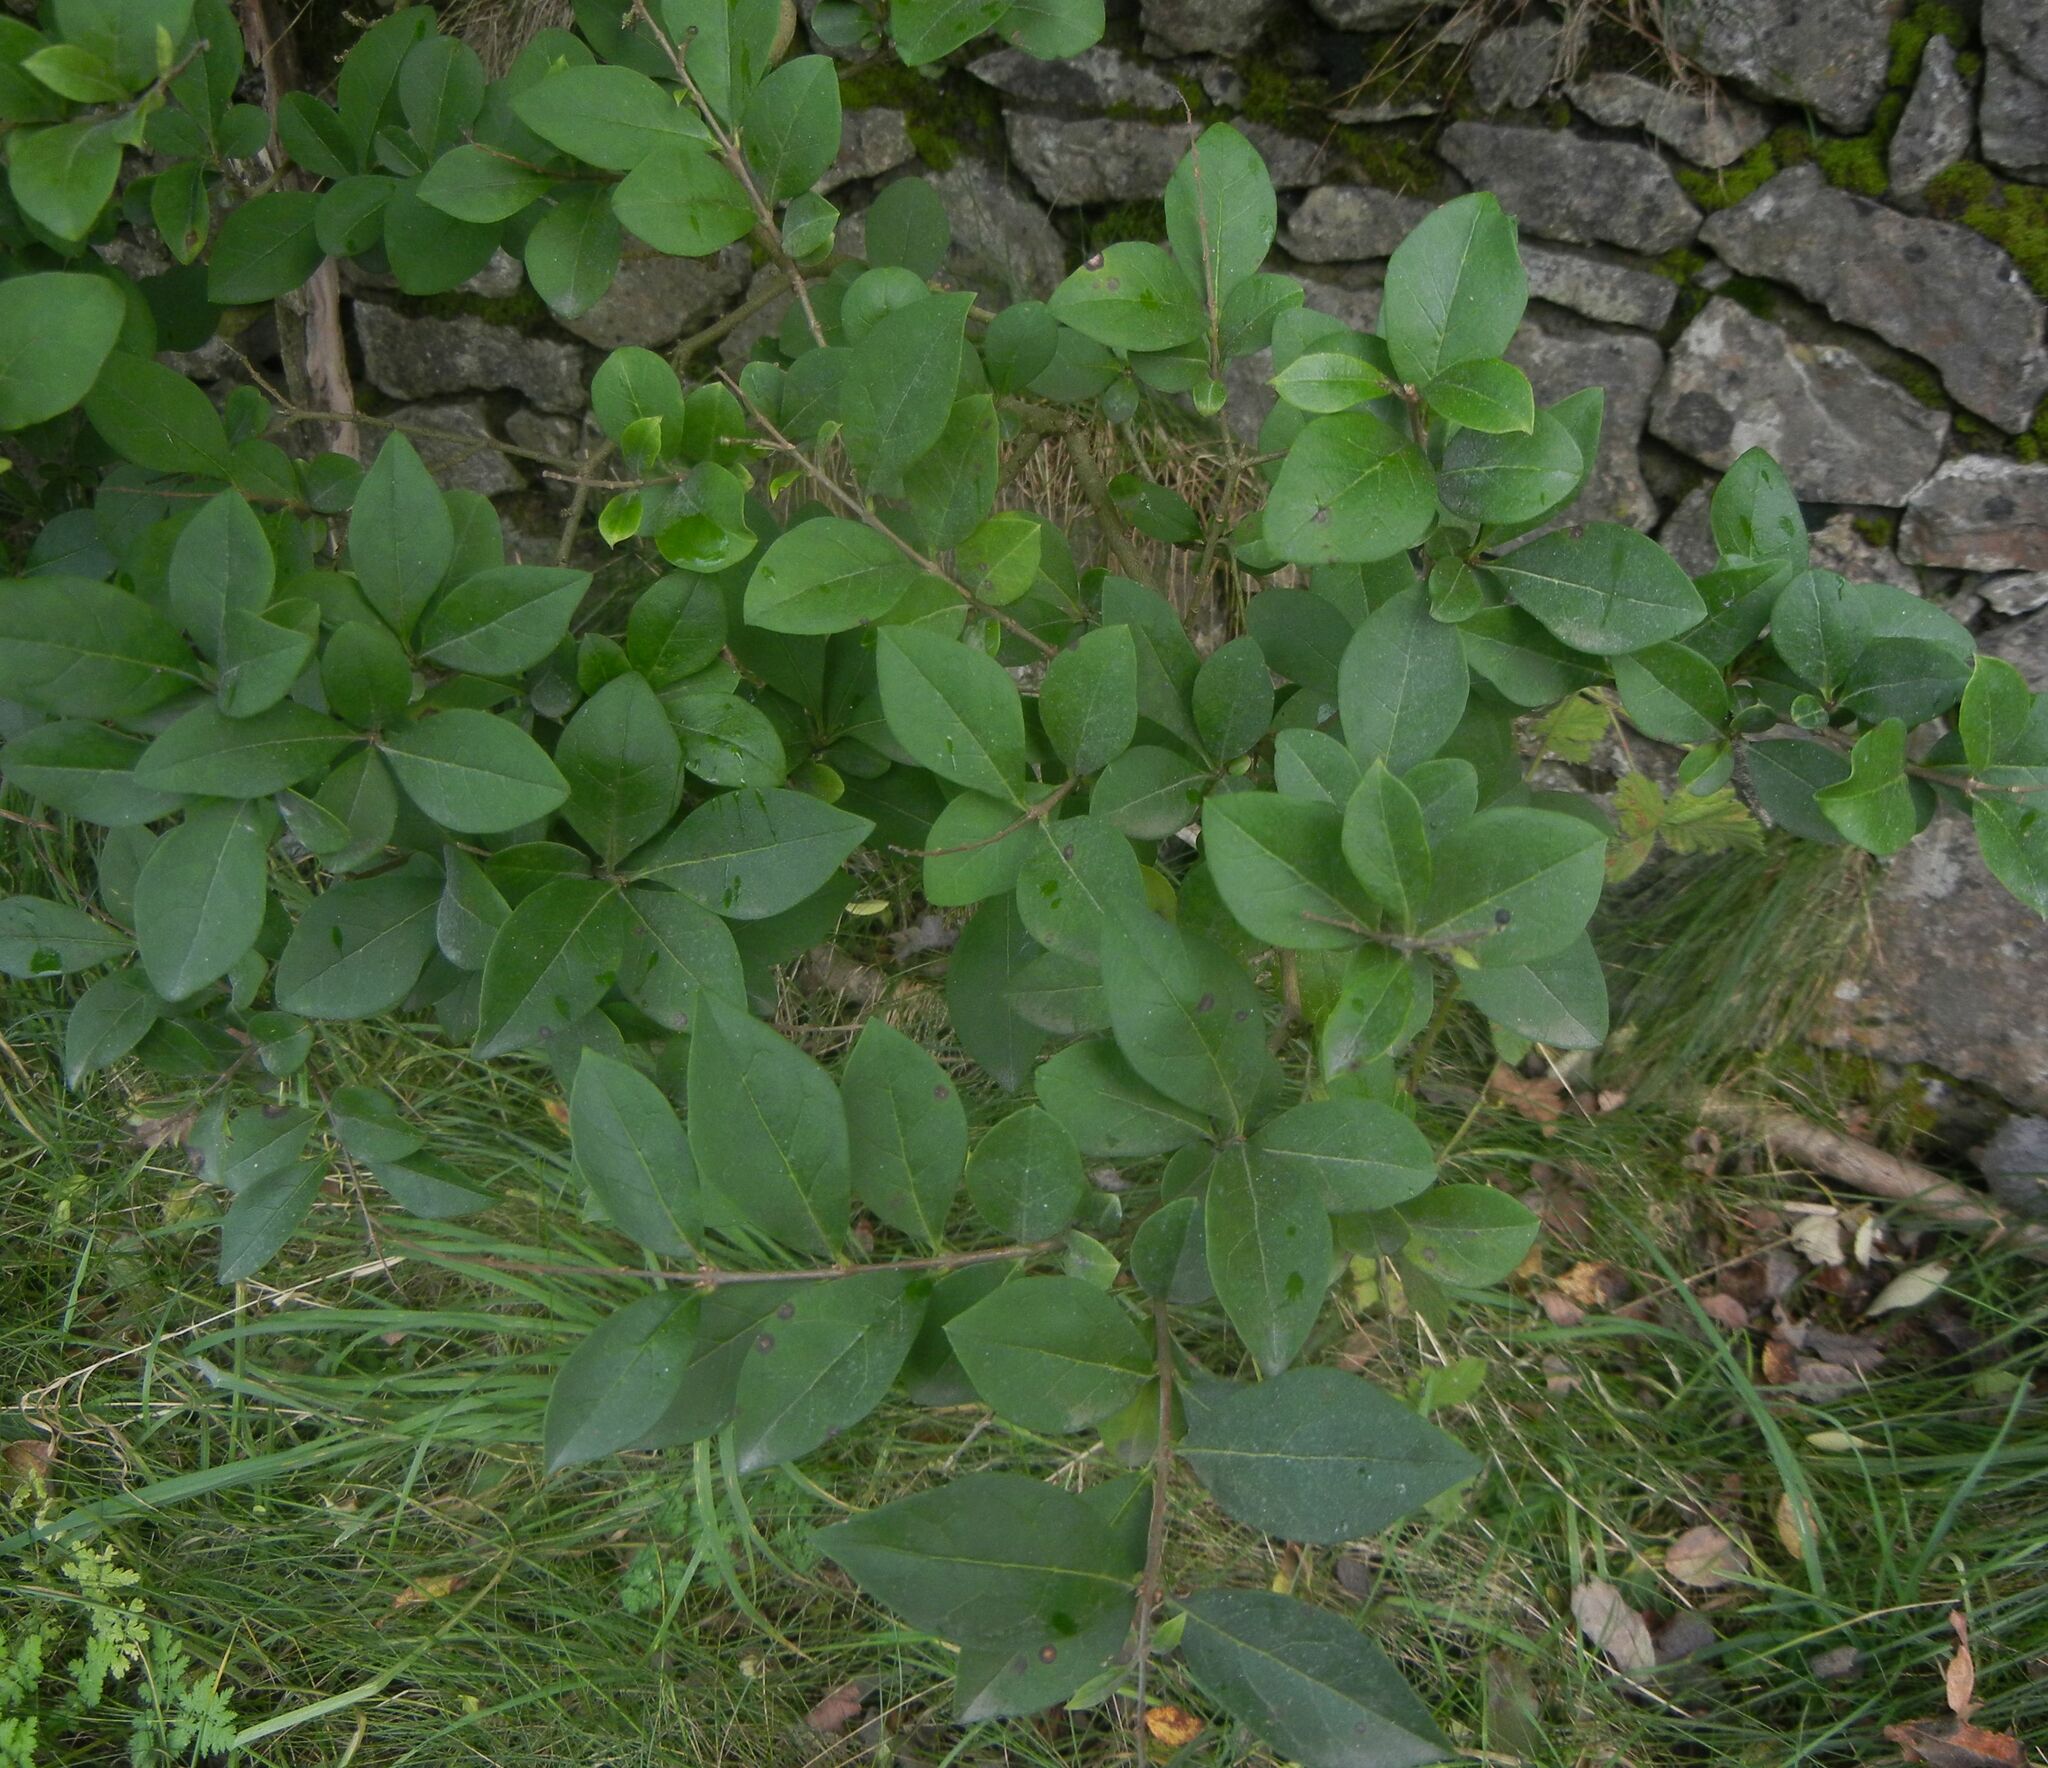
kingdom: Plantae
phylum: Tracheophyta
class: Magnoliopsida
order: Lamiales
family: Oleaceae
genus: Ligustrum
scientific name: Ligustrum ovalifolium
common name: California privet
